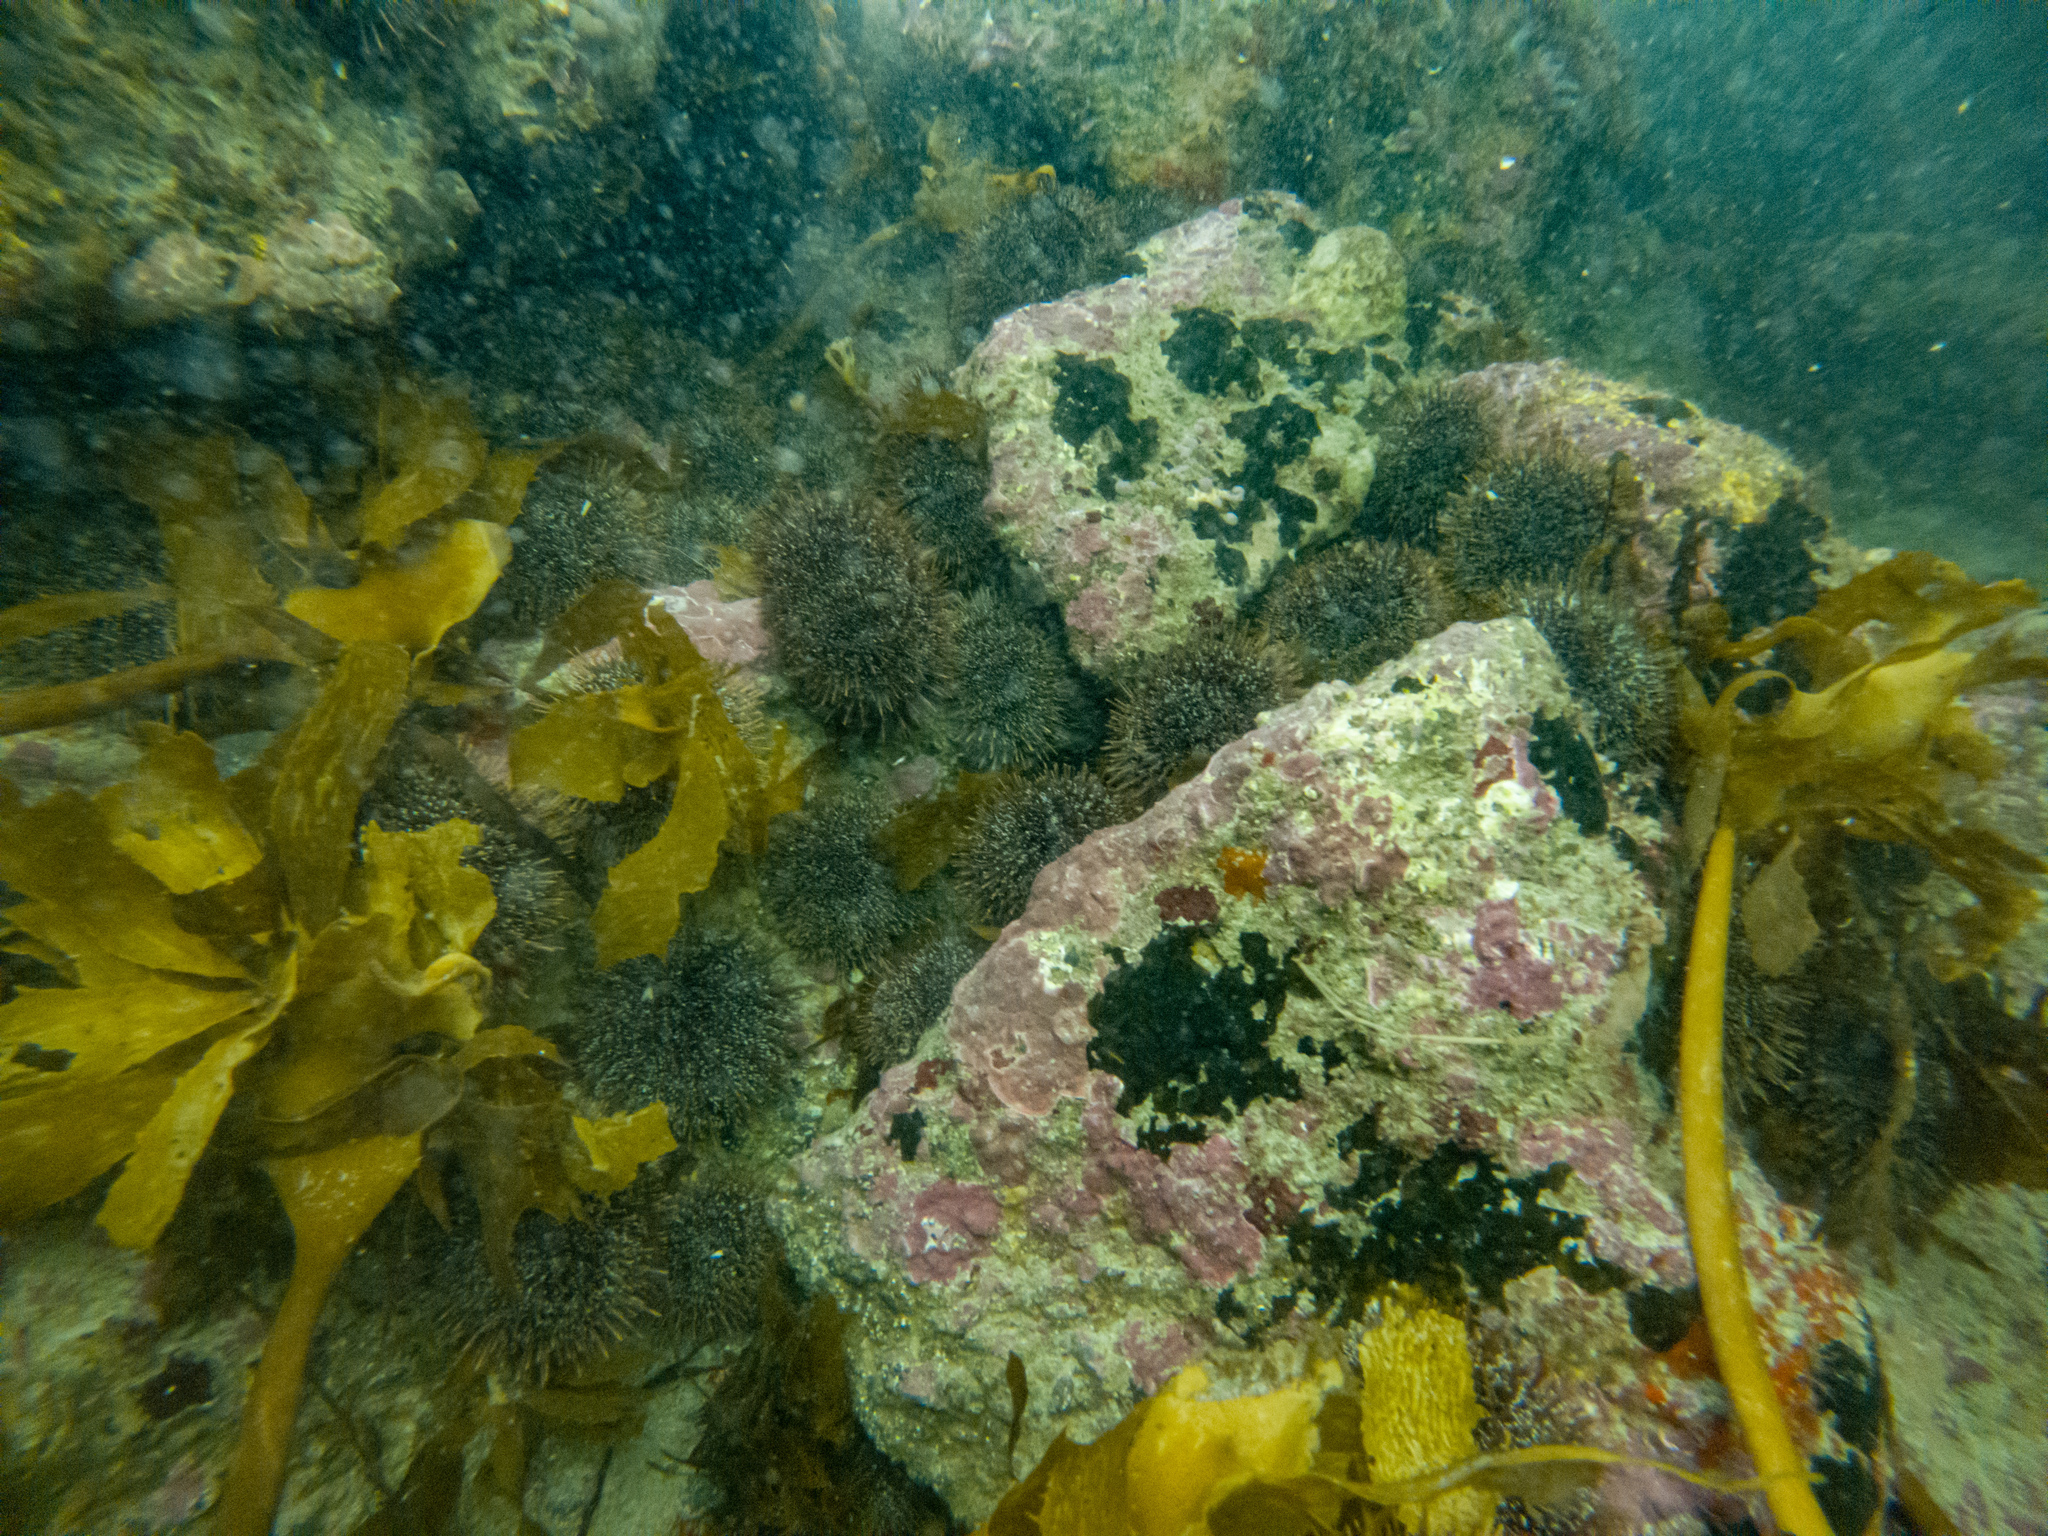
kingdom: Animalia
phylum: Echinodermata
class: Echinoidea
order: Camarodonta
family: Echinometridae
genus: Evechinus
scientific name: Evechinus chloroticus
